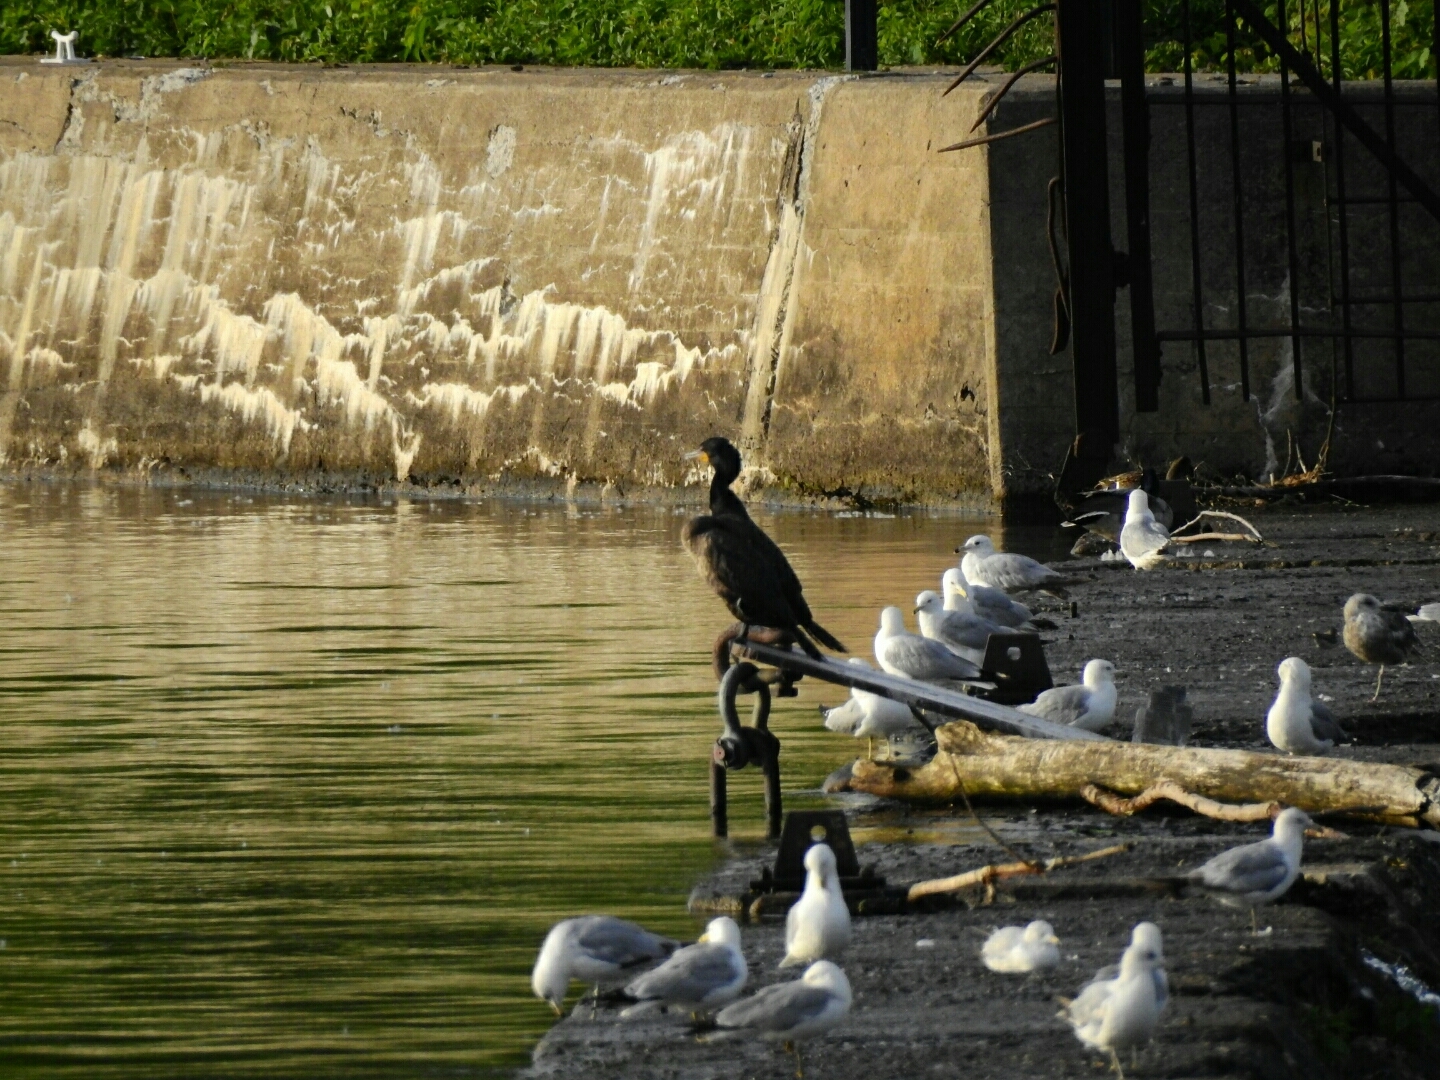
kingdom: Animalia
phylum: Chordata
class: Aves
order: Suliformes
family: Phalacrocoracidae
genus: Phalacrocorax
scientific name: Phalacrocorax auritus
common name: Double-crested cormorant
